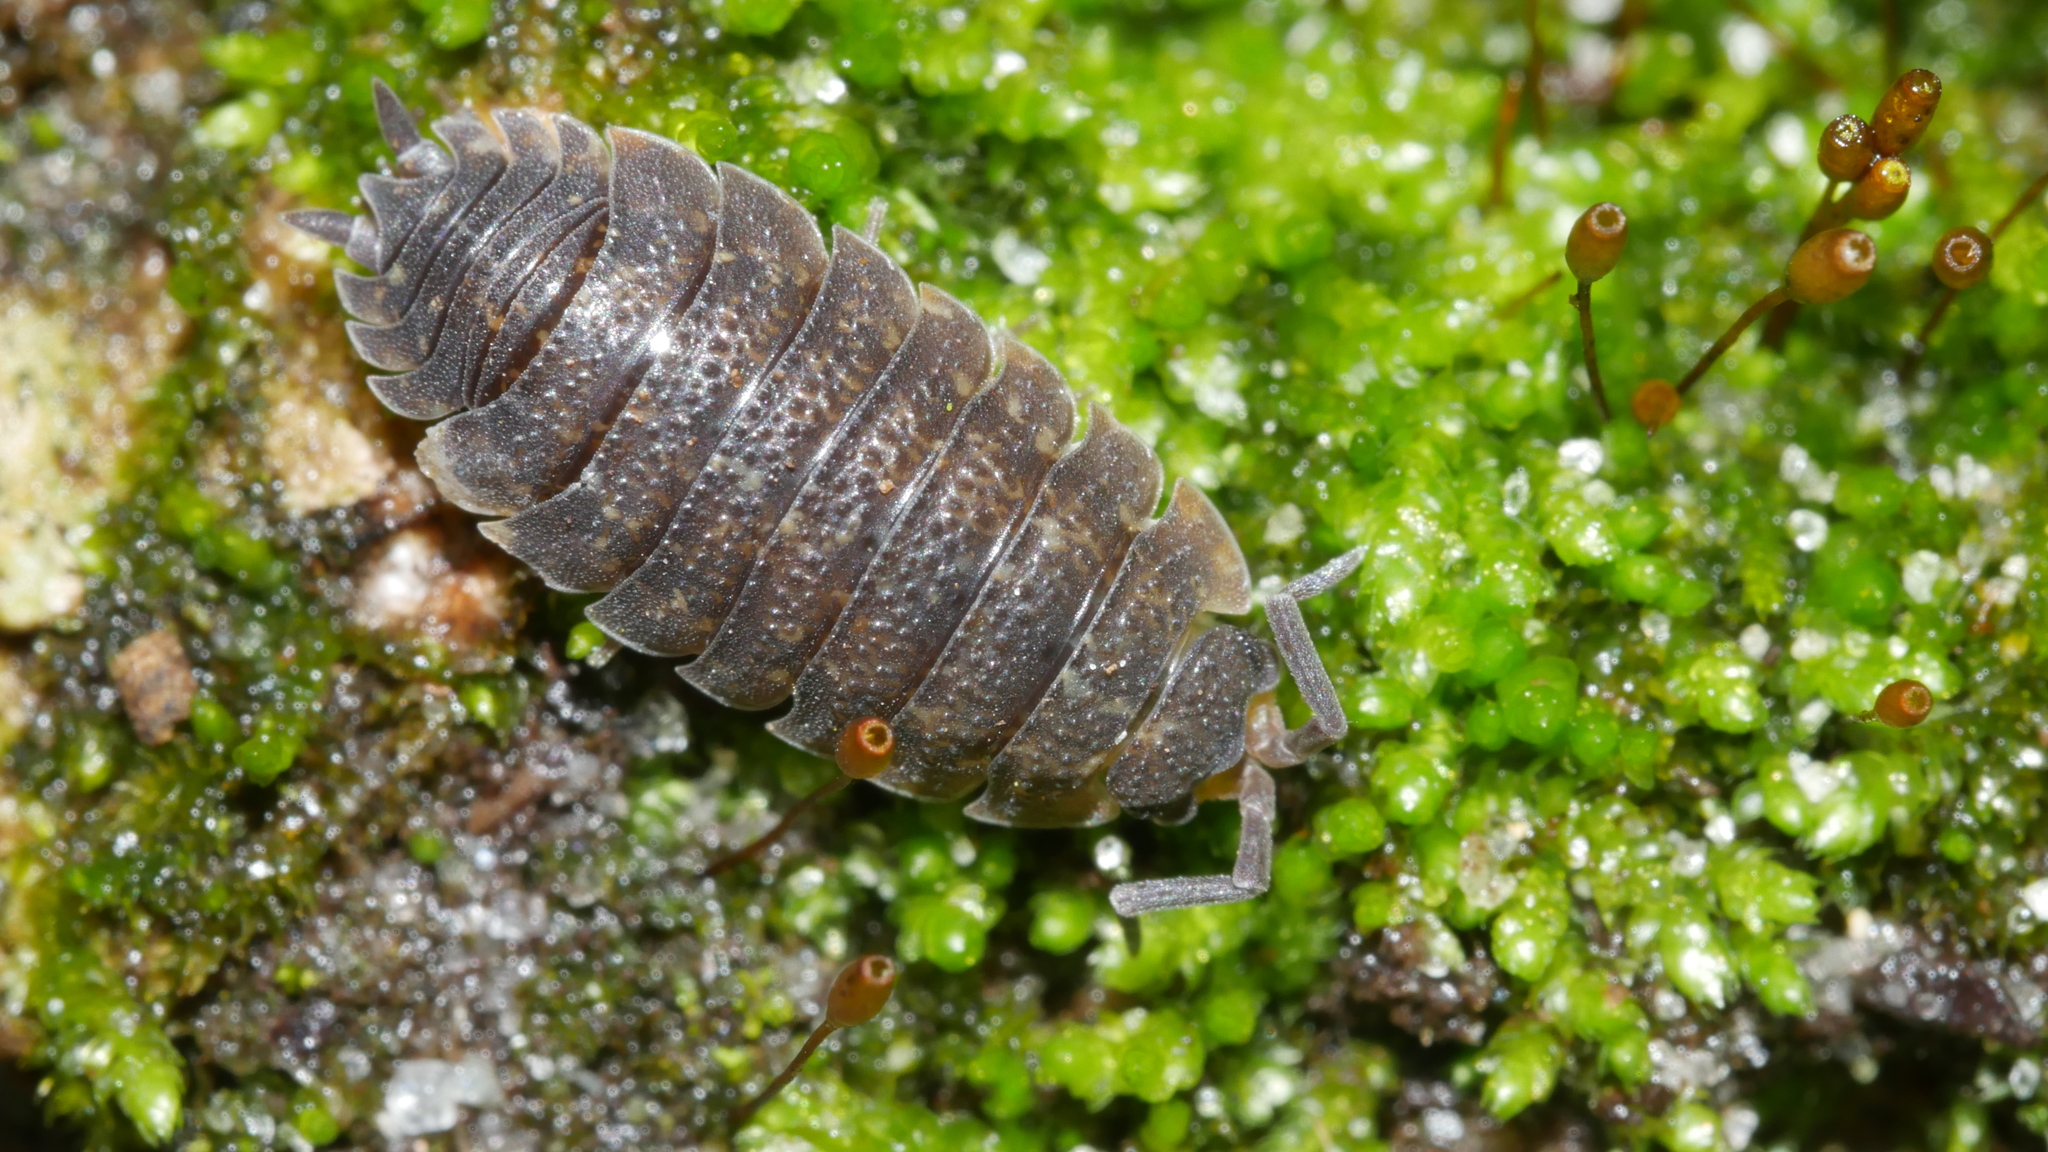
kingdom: Animalia
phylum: Arthropoda
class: Malacostraca
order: Isopoda
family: Porcellionidae
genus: Porcellio
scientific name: Porcellio scaber
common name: Common rough woodlouse
